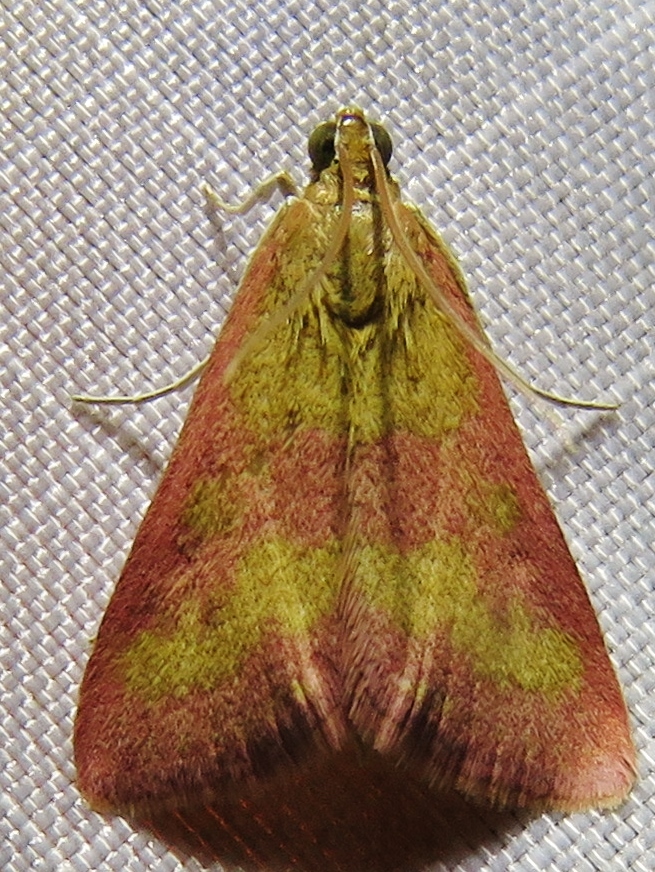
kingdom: Animalia
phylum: Arthropoda
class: Insecta
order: Lepidoptera
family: Crambidae
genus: Pyrausta
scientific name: Pyrausta laticlavia
